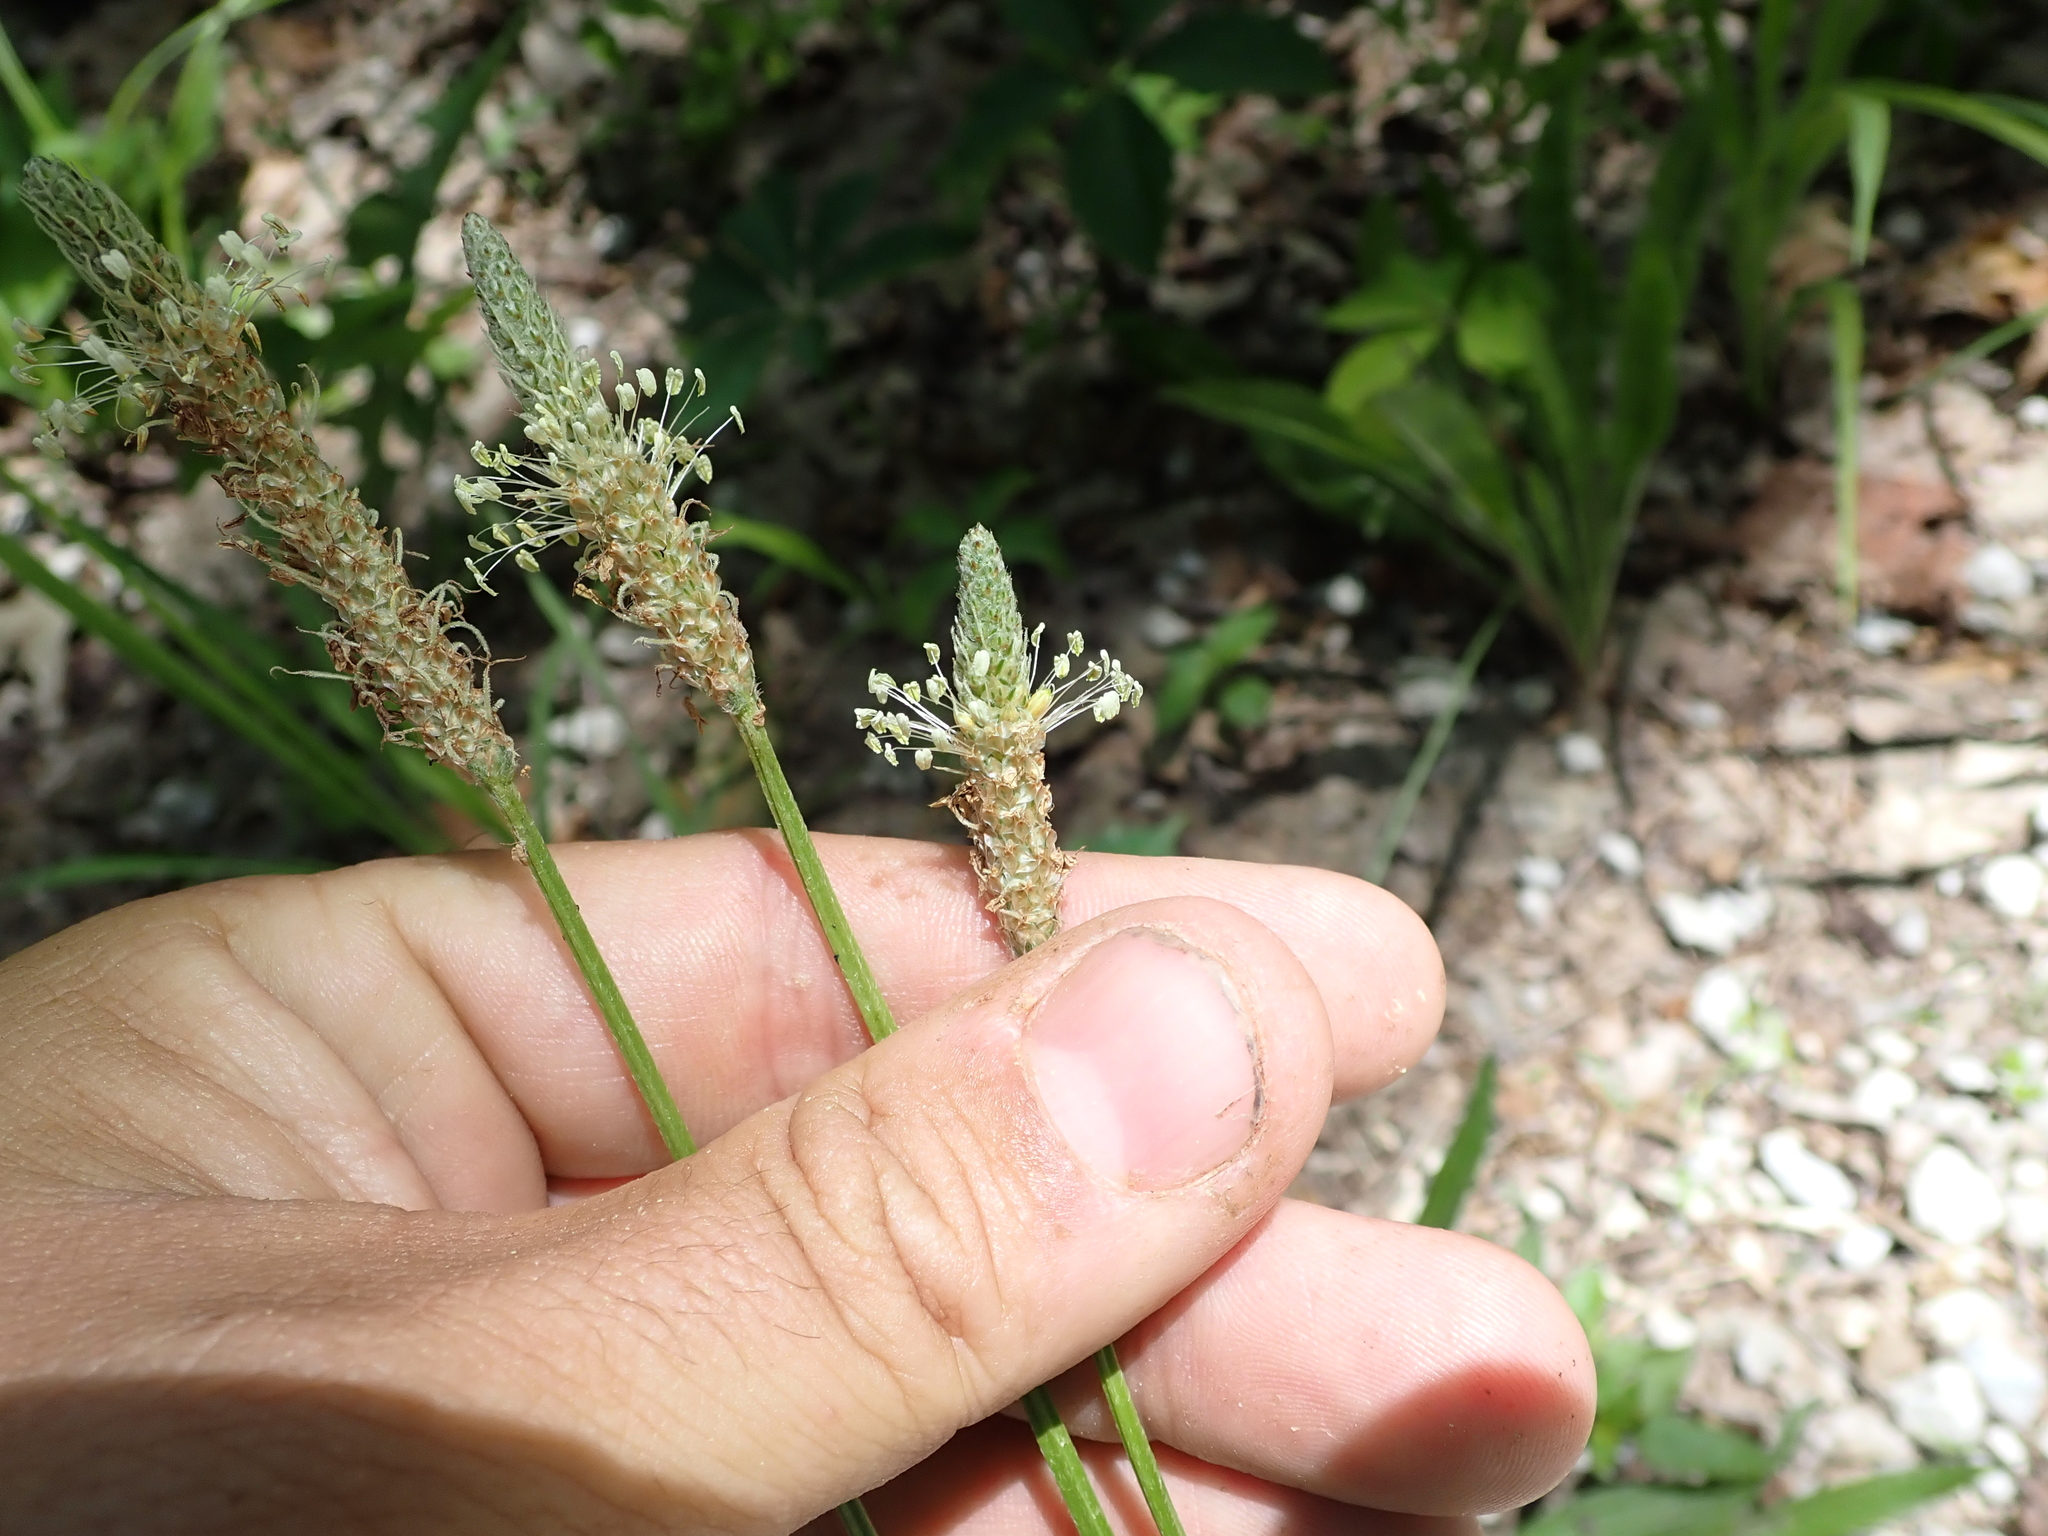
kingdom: Plantae
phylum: Tracheophyta
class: Magnoliopsida
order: Lamiales
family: Plantaginaceae
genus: Plantago
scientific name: Plantago lanceolata
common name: Ribwort plantain
